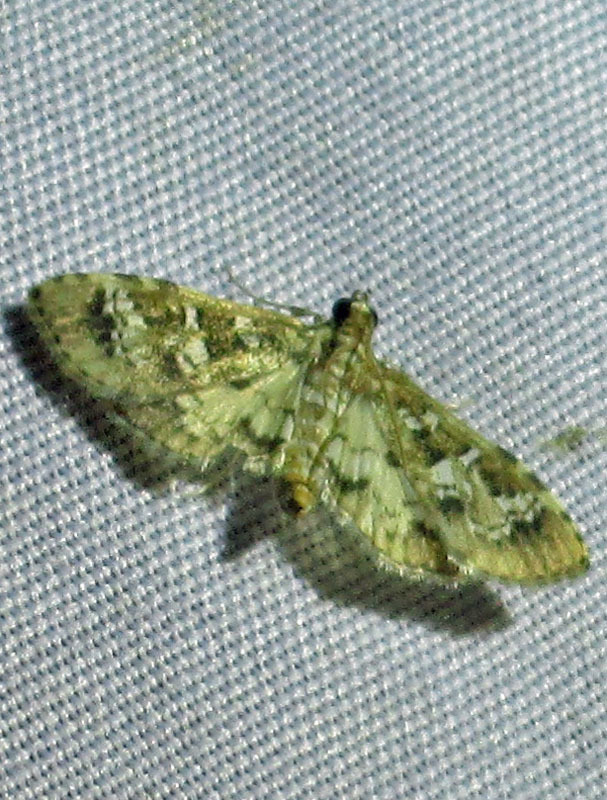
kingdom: Animalia
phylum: Arthropoda
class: Insecta
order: Lepidoptera
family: Crambidae
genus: Samea
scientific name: Samea multiplicalis
